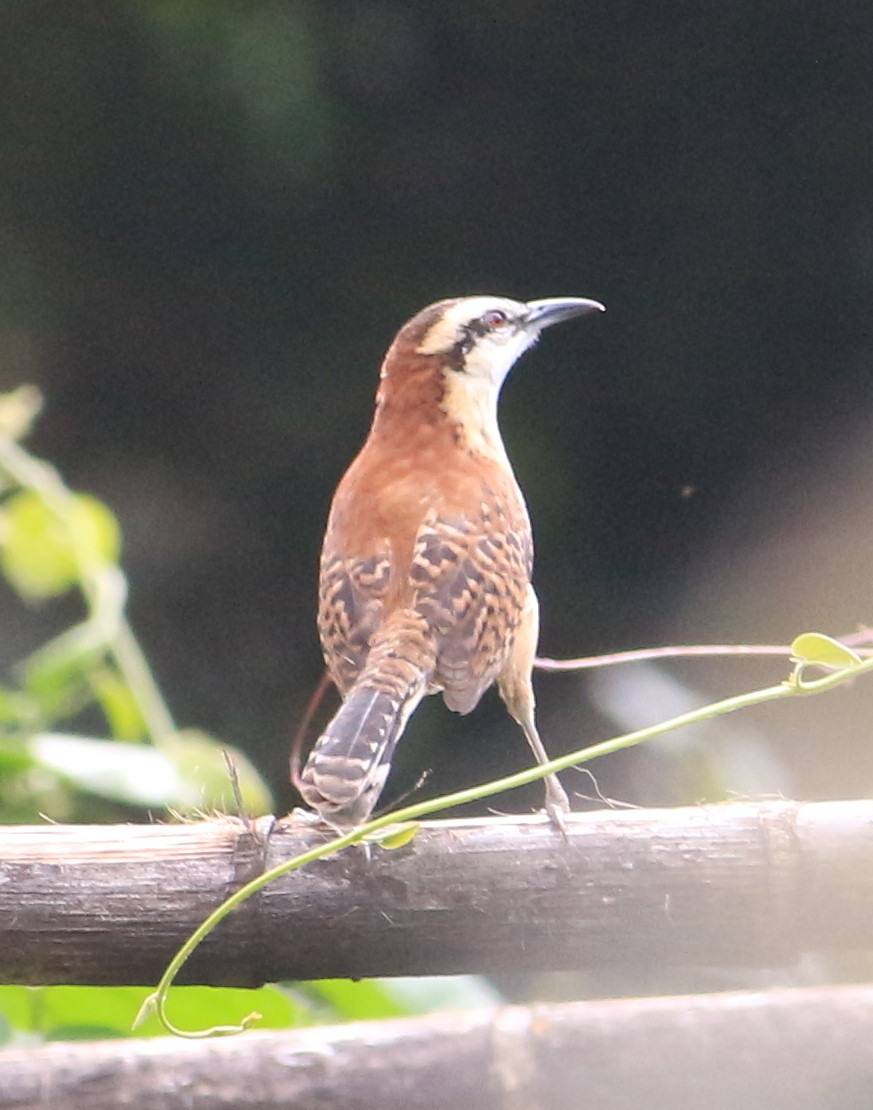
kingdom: Animalia
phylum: Chordata
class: Aves
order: Passeriformes
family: Troglodytidae
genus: Campylorhynchus
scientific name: Campylorhynchus rufinucha
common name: Rufous-naped wren
